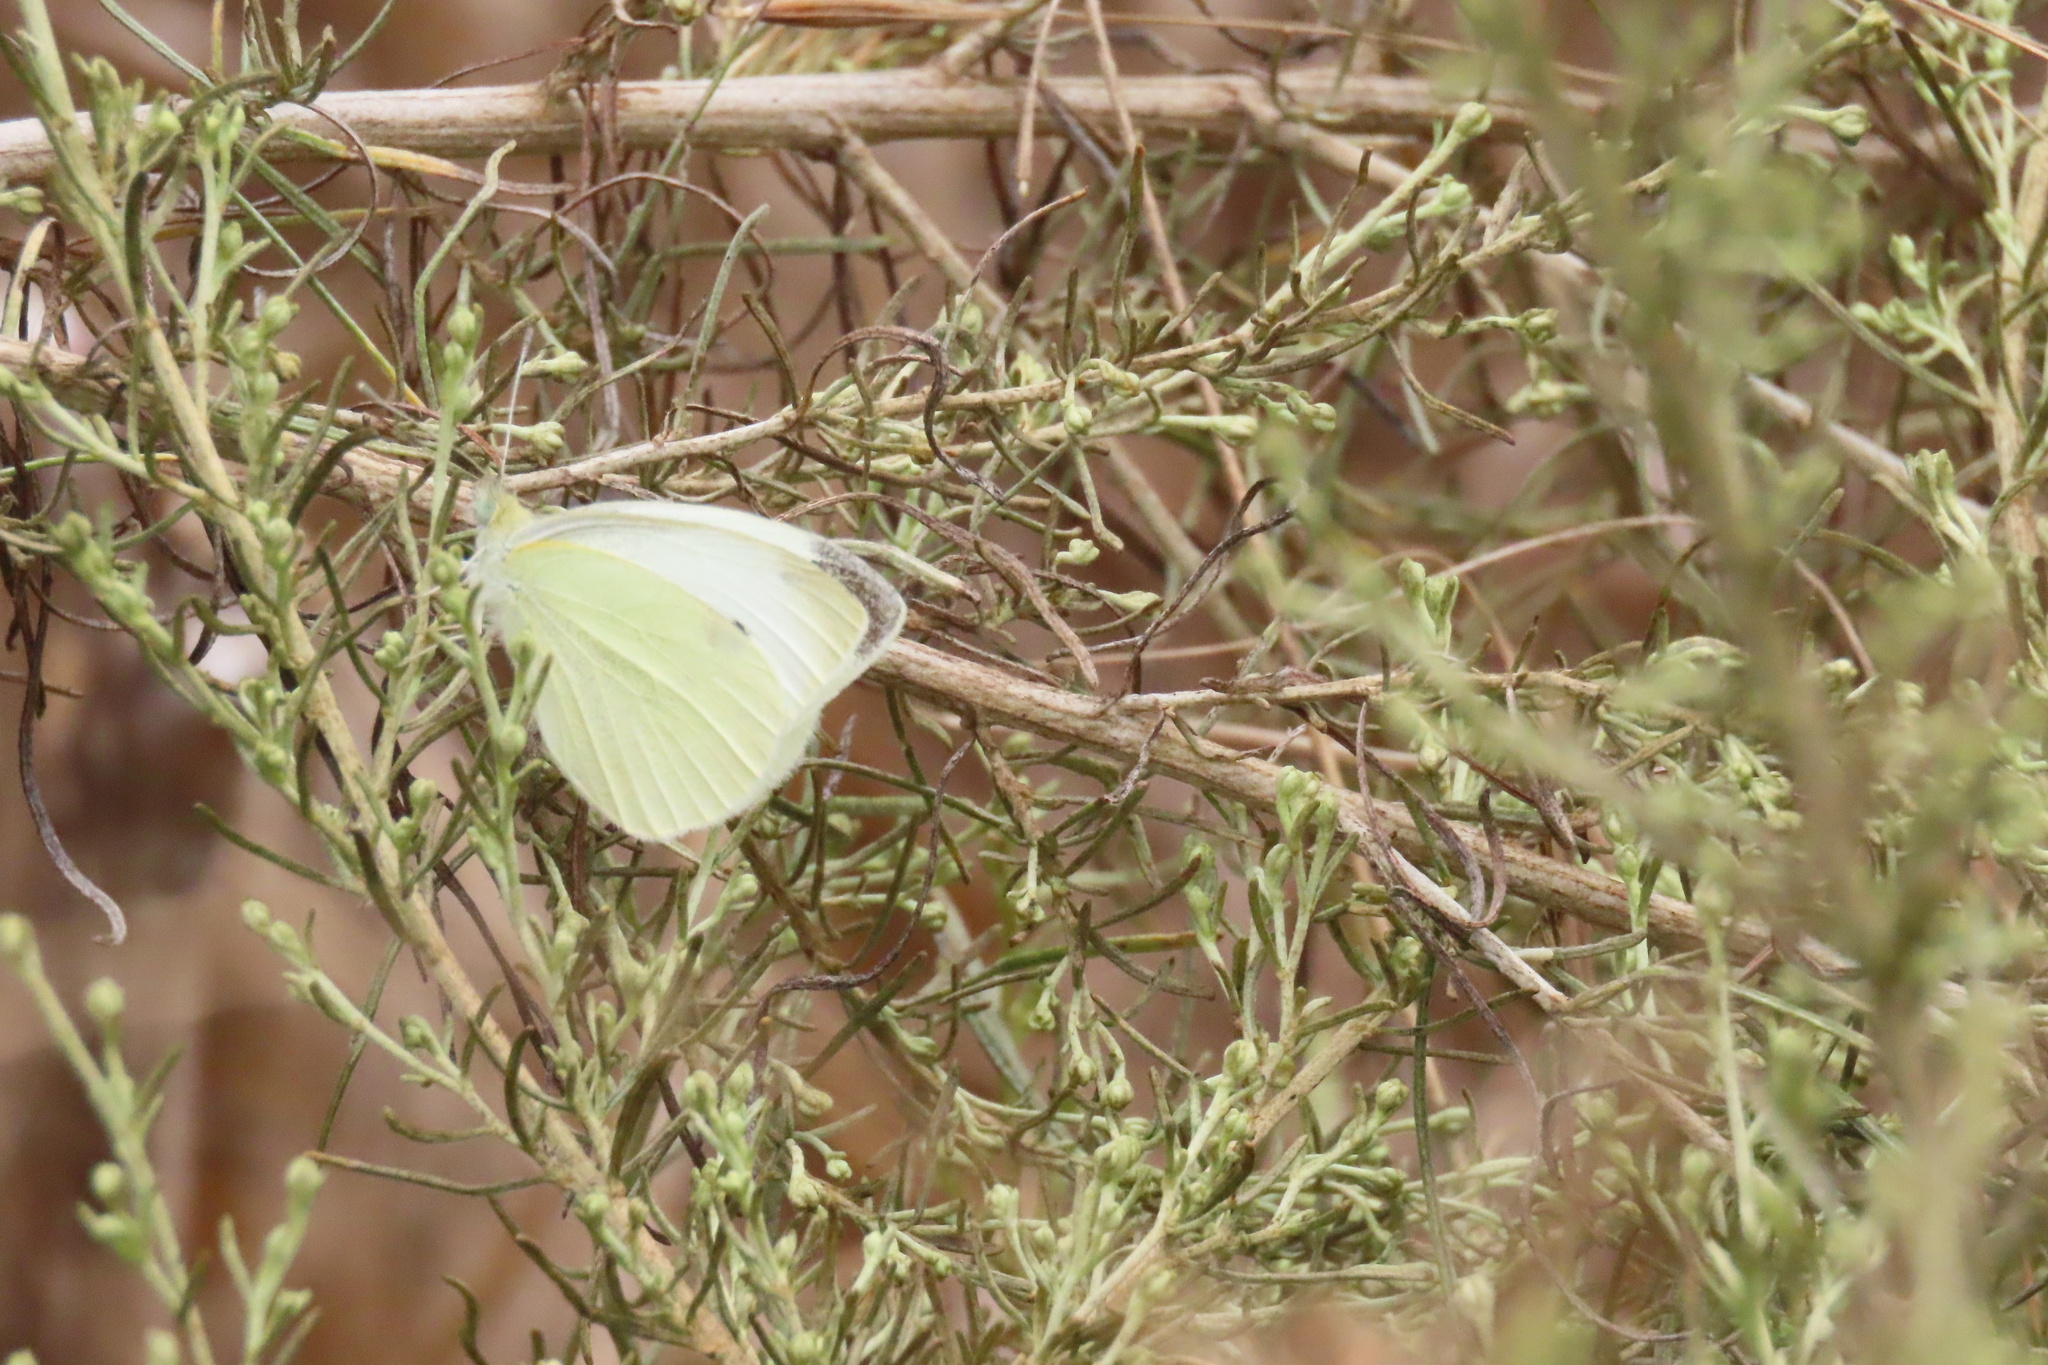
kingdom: Animalia
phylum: Arthropoda
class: Insecta
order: Lepidoptera
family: Pieridae
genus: Pieris
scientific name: Pieris rapae
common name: Small white
